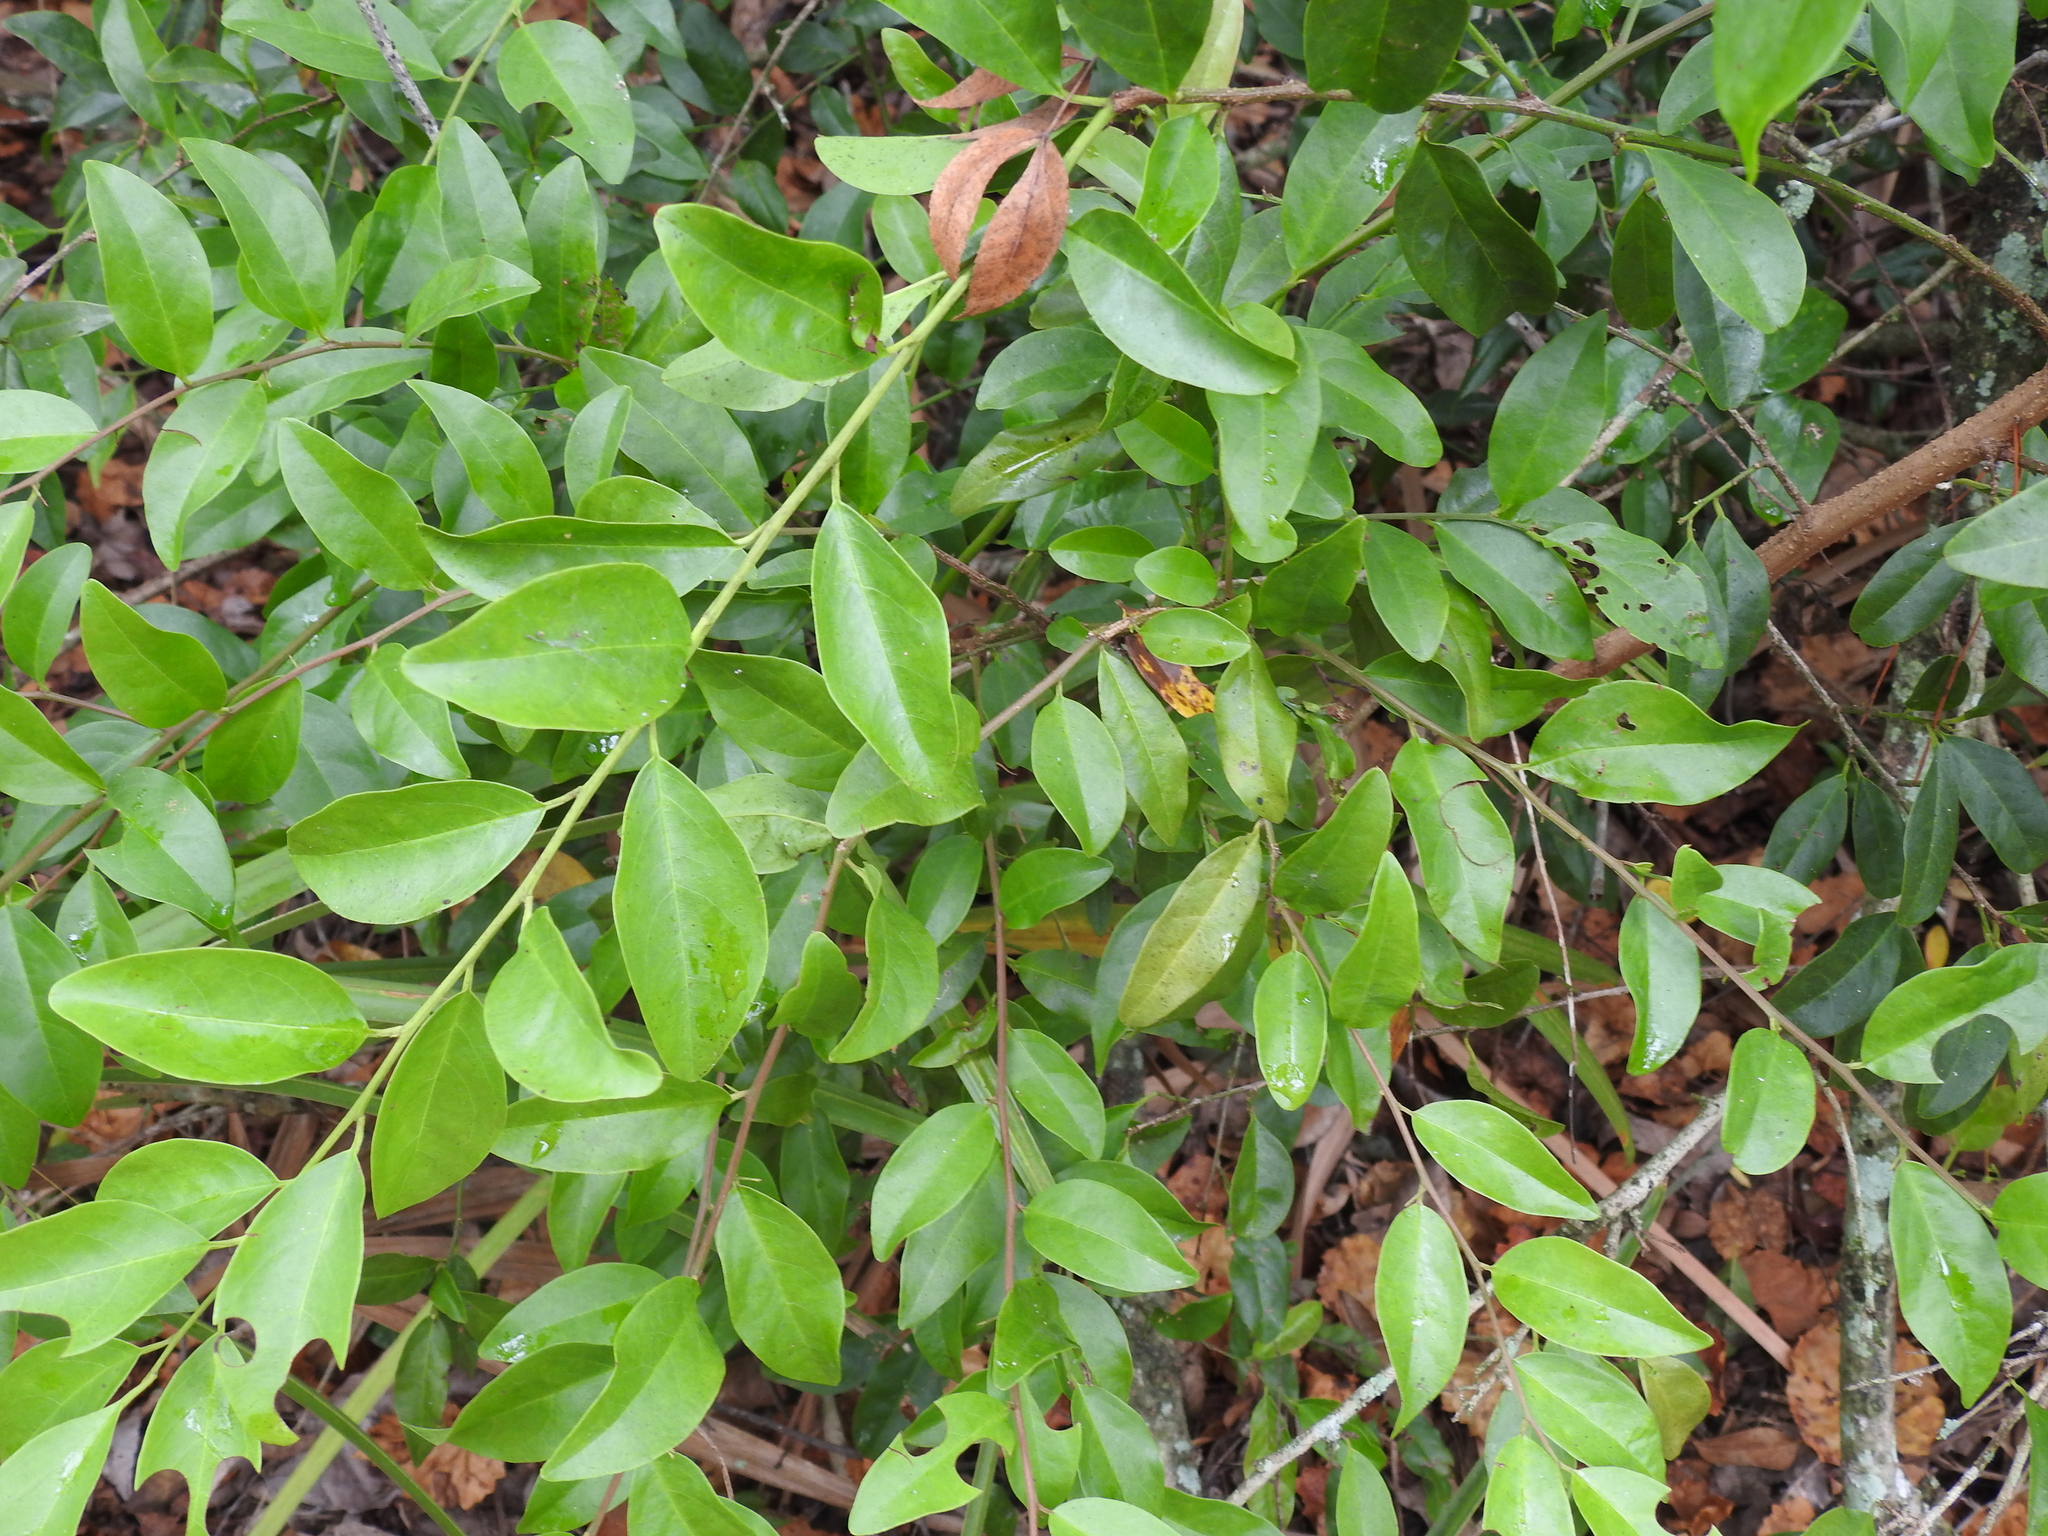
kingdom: Plantae
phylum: Tracheophyta
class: Magnoliopsida
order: Santalales
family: Ximeniaceae
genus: Ximenia
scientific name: Ximenia americana
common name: Tallowwood
